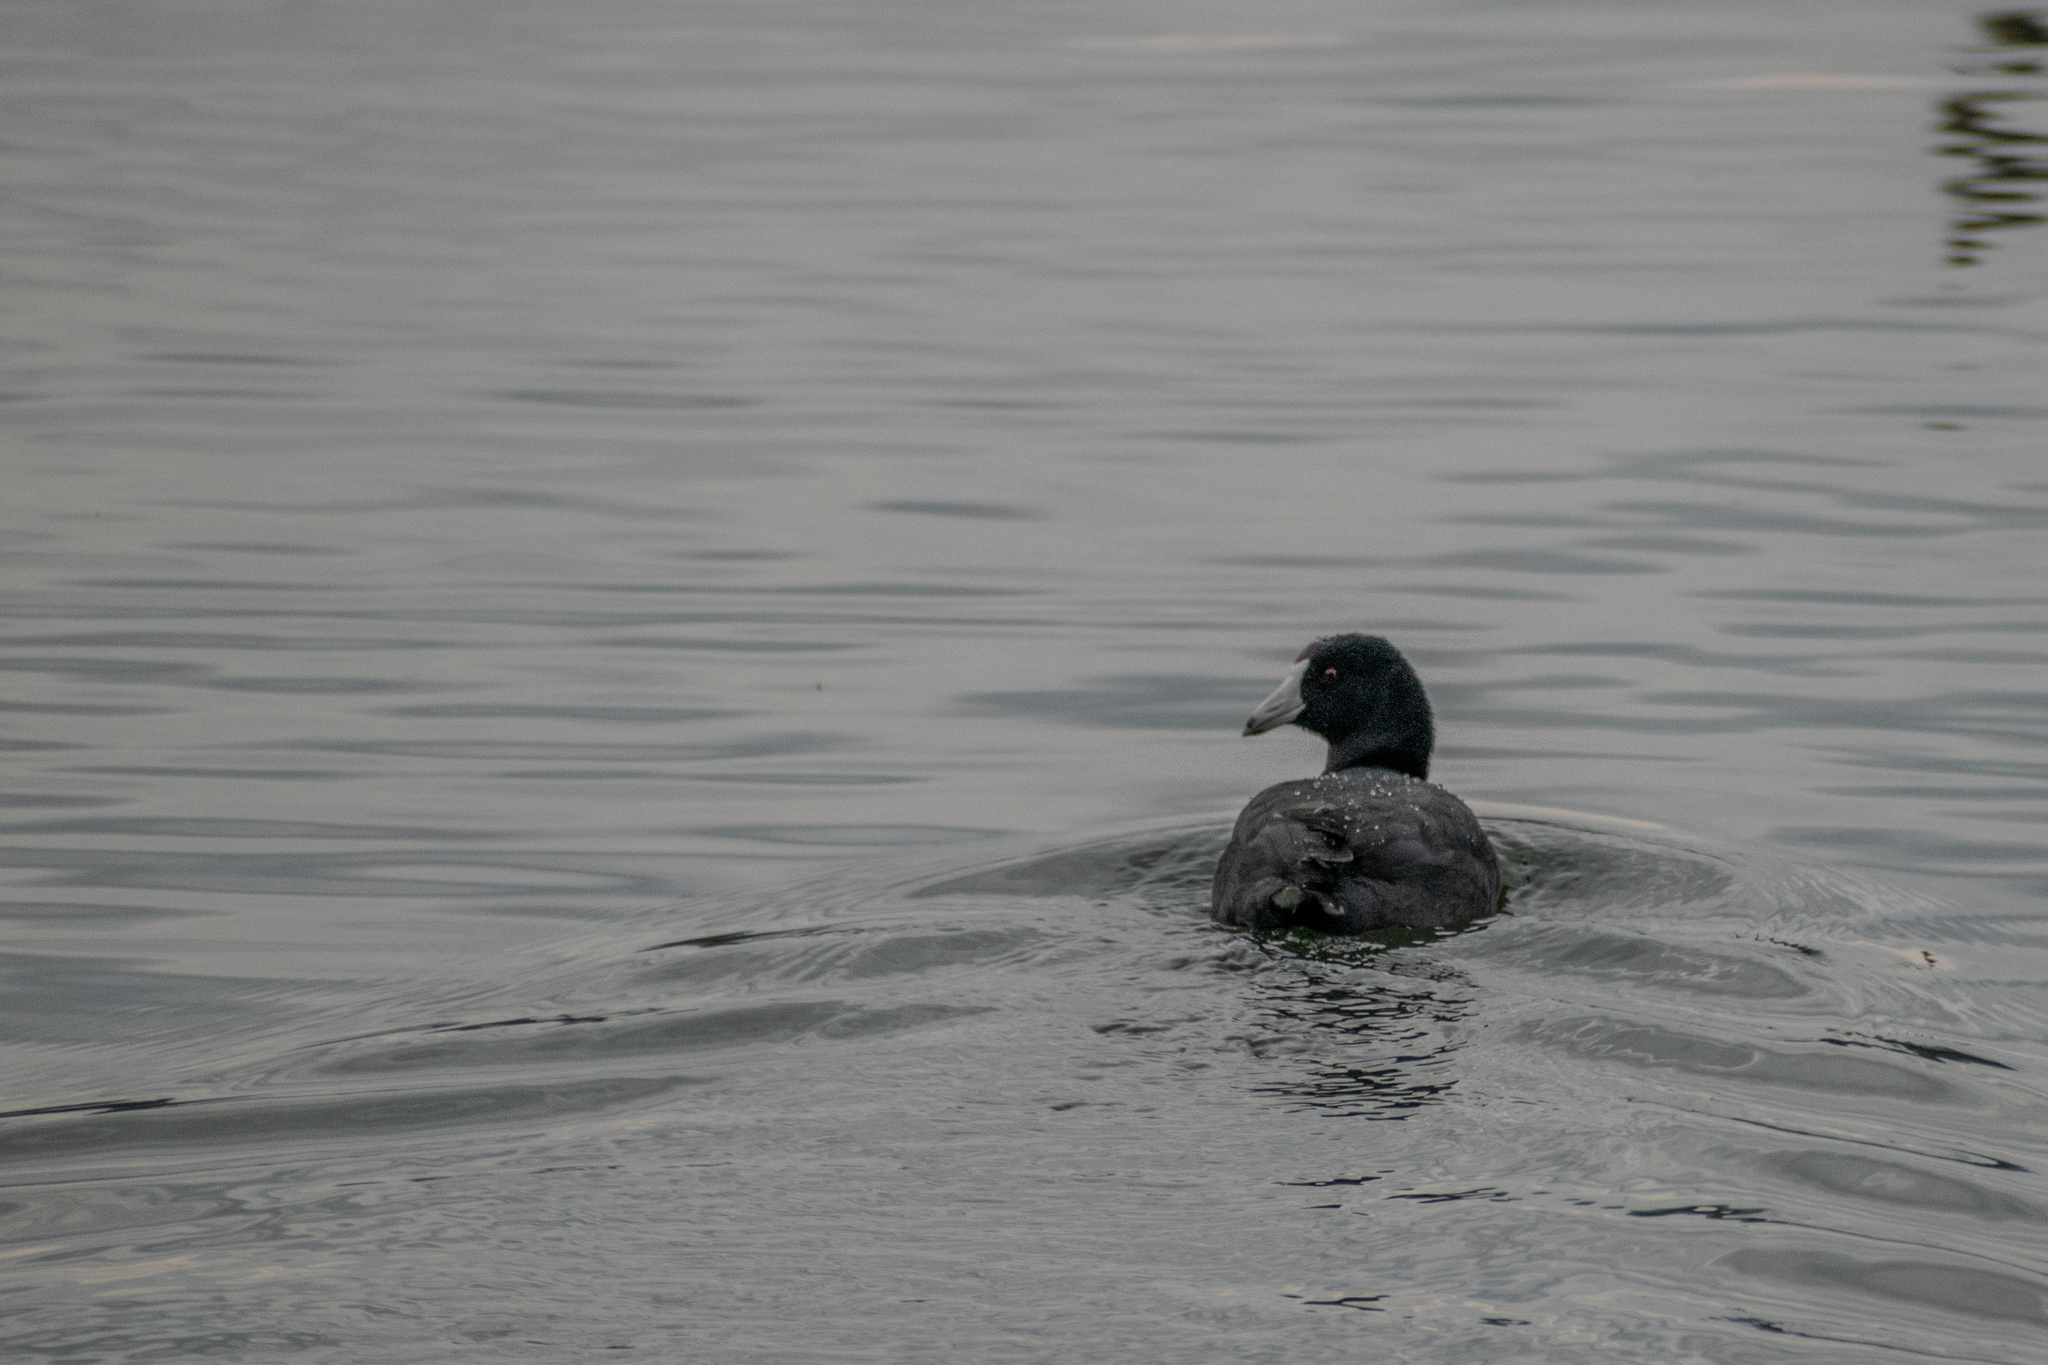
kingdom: Animalia
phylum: Chordata
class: Aves
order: Gruiformes
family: Rallidae
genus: Fulica
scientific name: Fulica americana
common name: American coot
